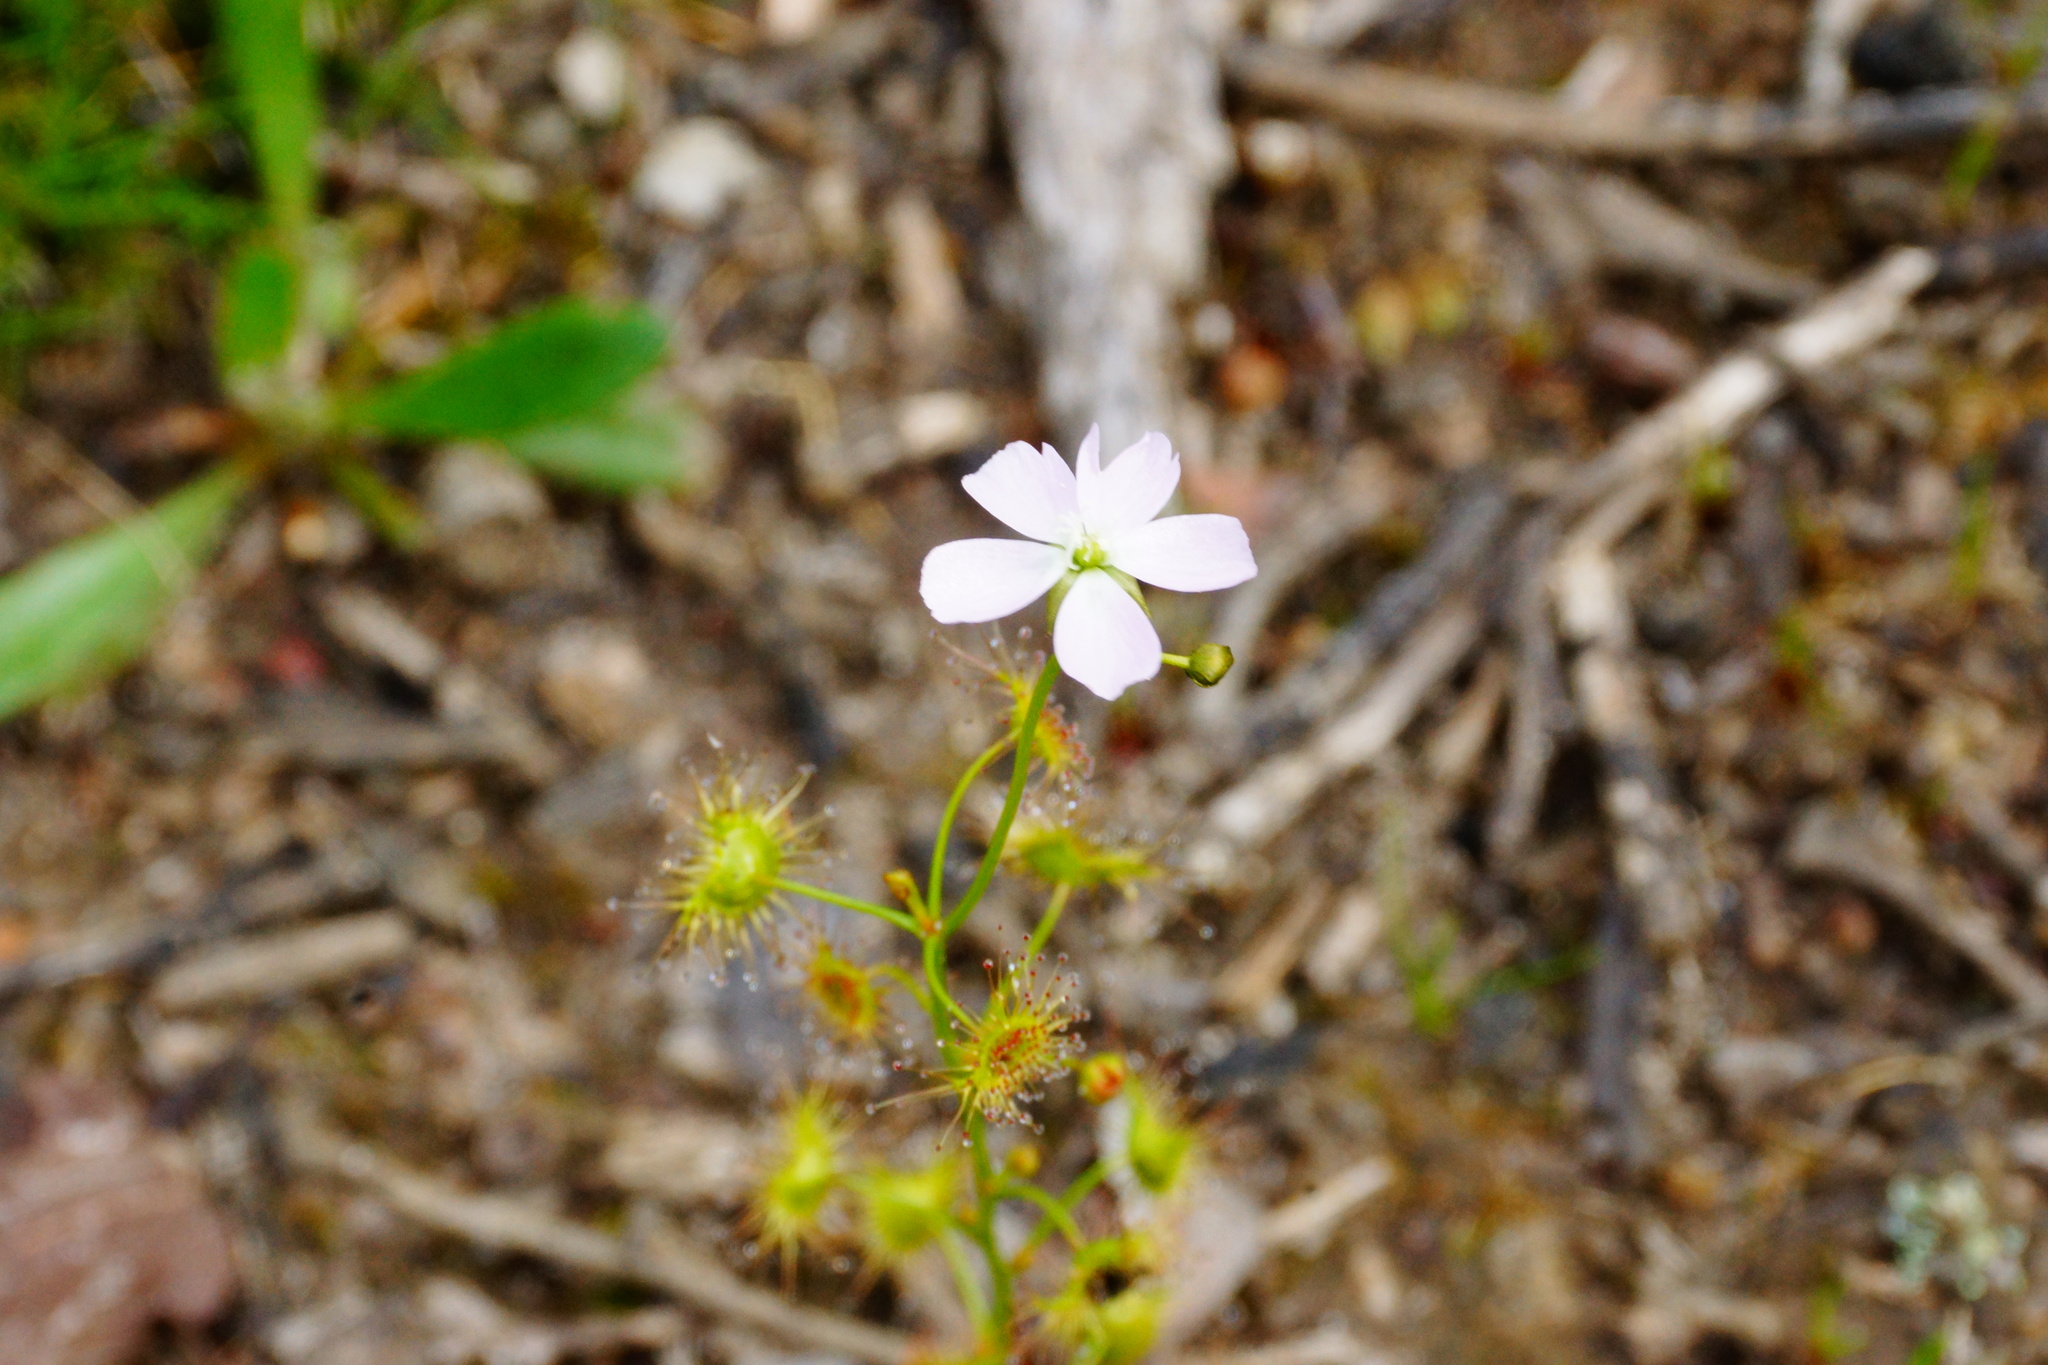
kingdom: Plantae
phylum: Tracheophyta
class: Magnoliopsida
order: Caryophyllales
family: Droseraceae
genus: Drosera
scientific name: Drosera peltata
